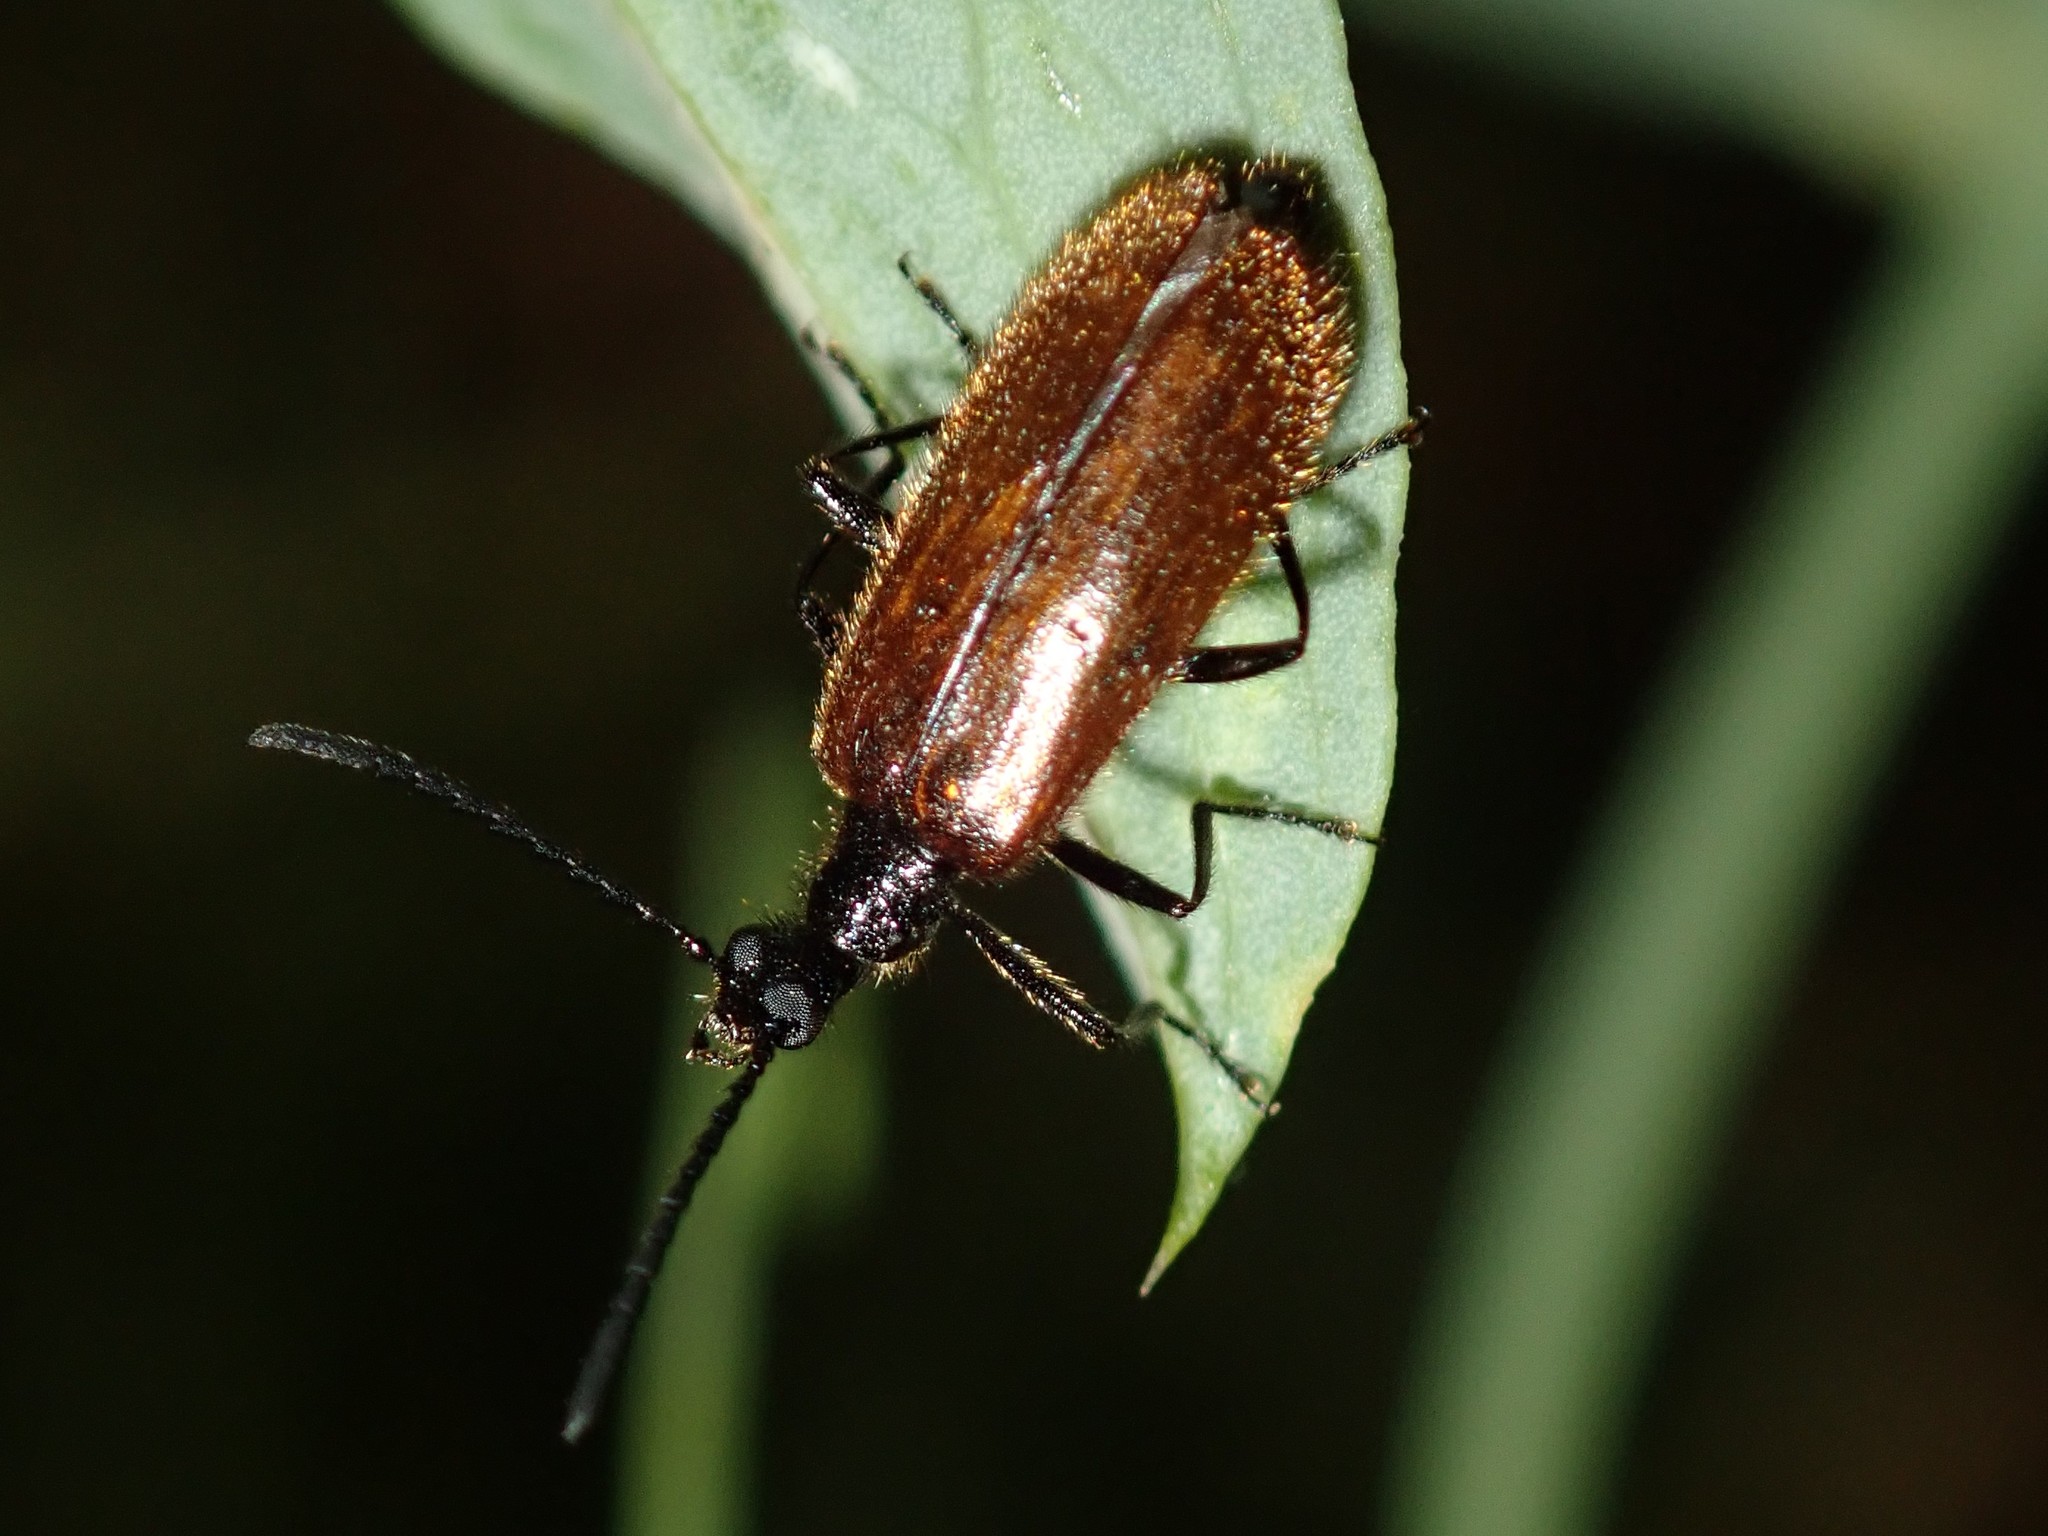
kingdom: Animalia
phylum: Arthropoda
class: Insecta
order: Coleoptera
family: Tenebrionidae
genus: Lagria
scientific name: Lagria hirta
